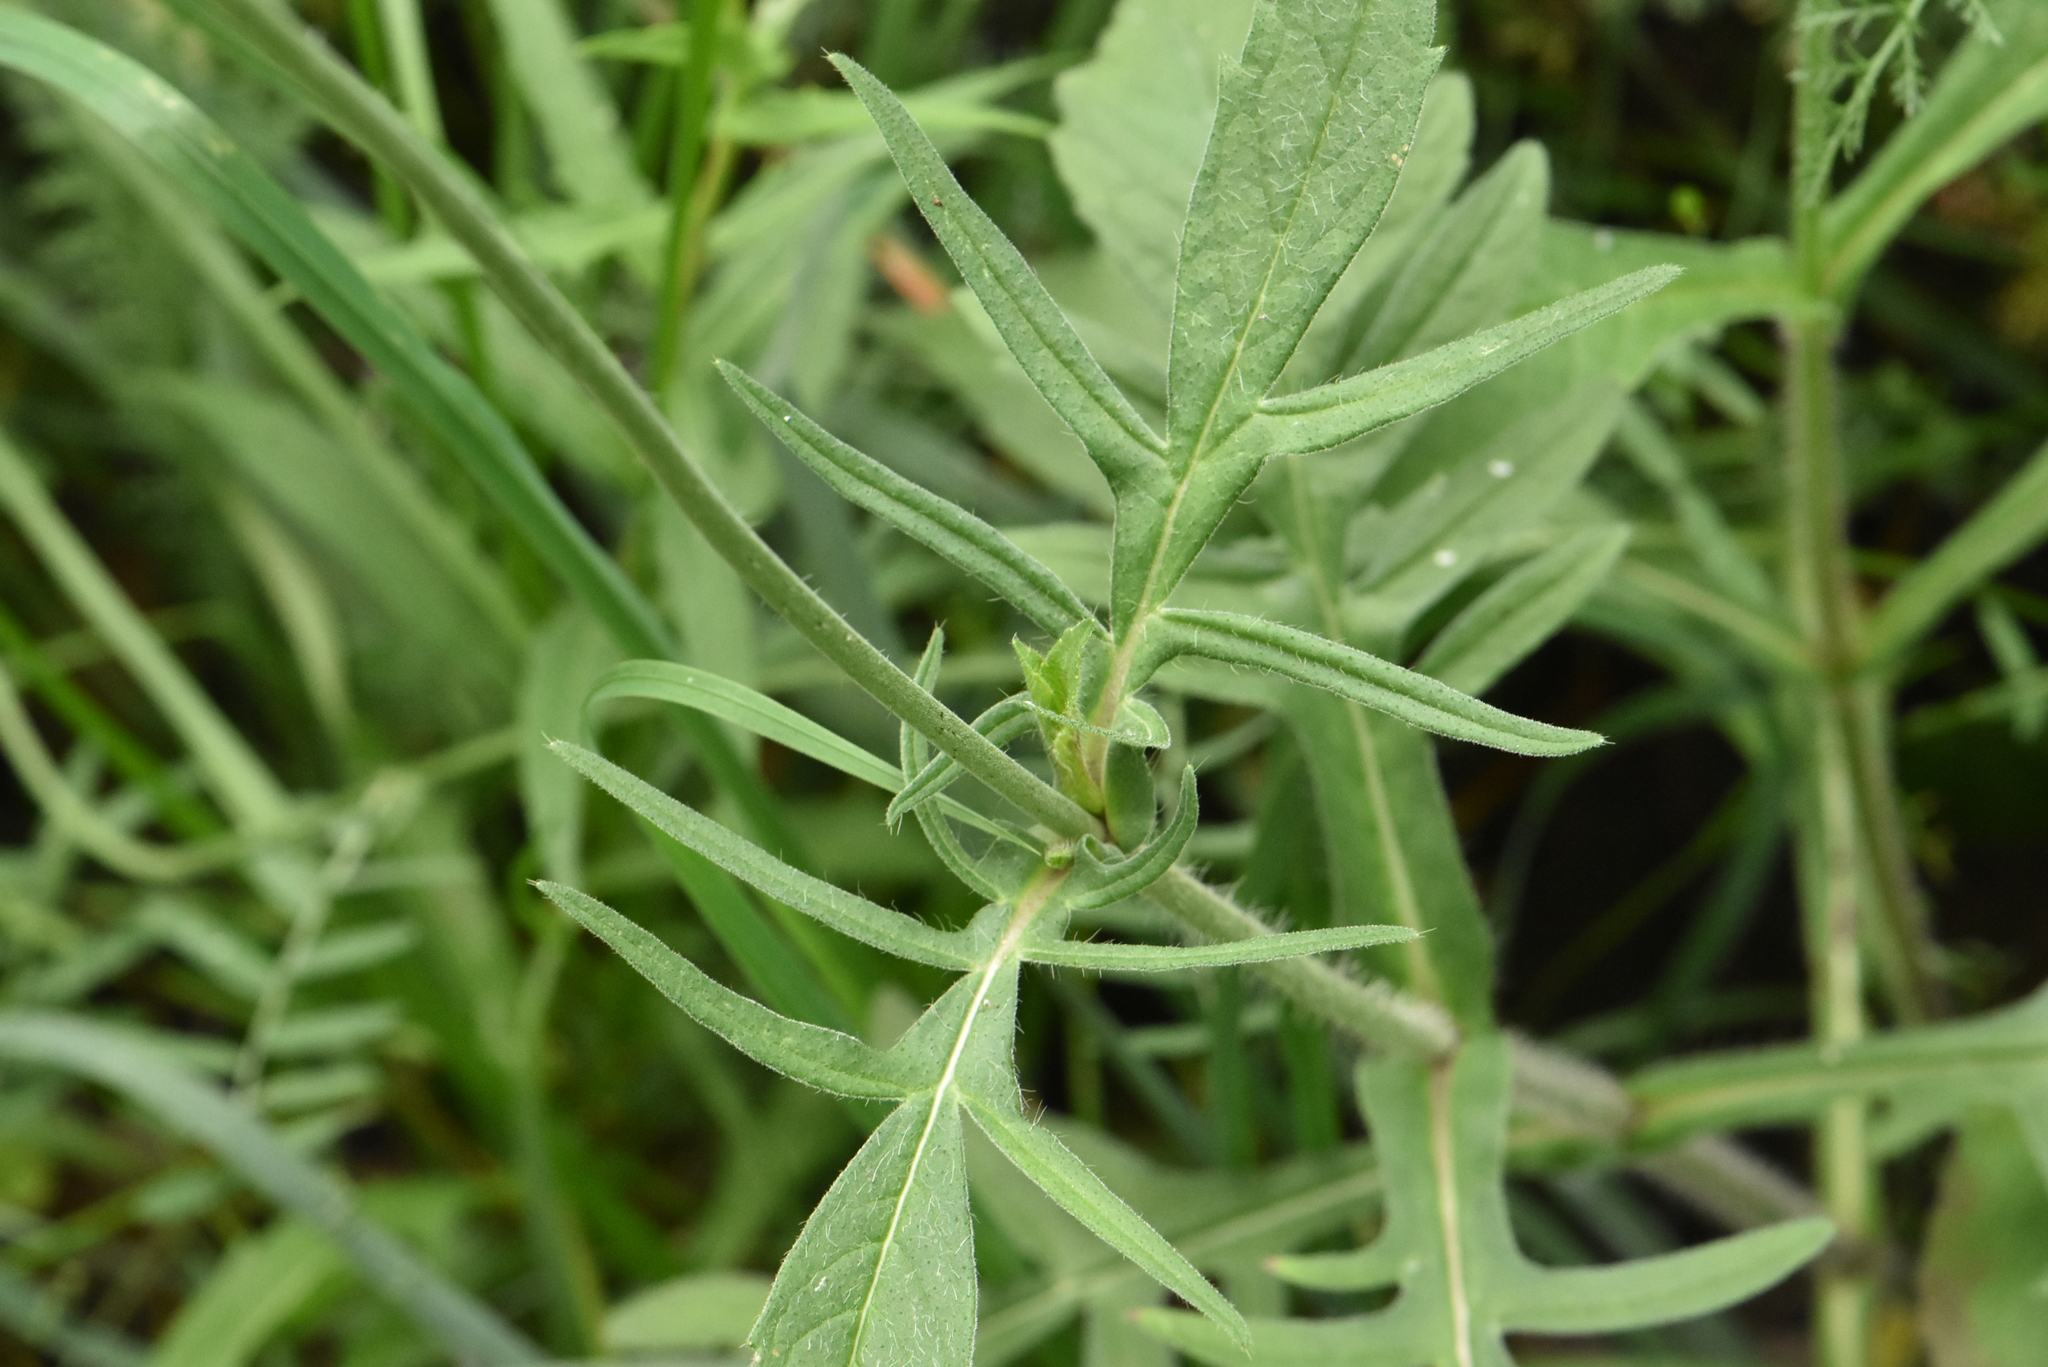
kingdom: Plantae
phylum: Tracheophyta
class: Magnoliopsida
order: Dipsacales
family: Caprifoliaceae
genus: Knautia
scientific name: Knautia arvensis
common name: Field scabiosa
